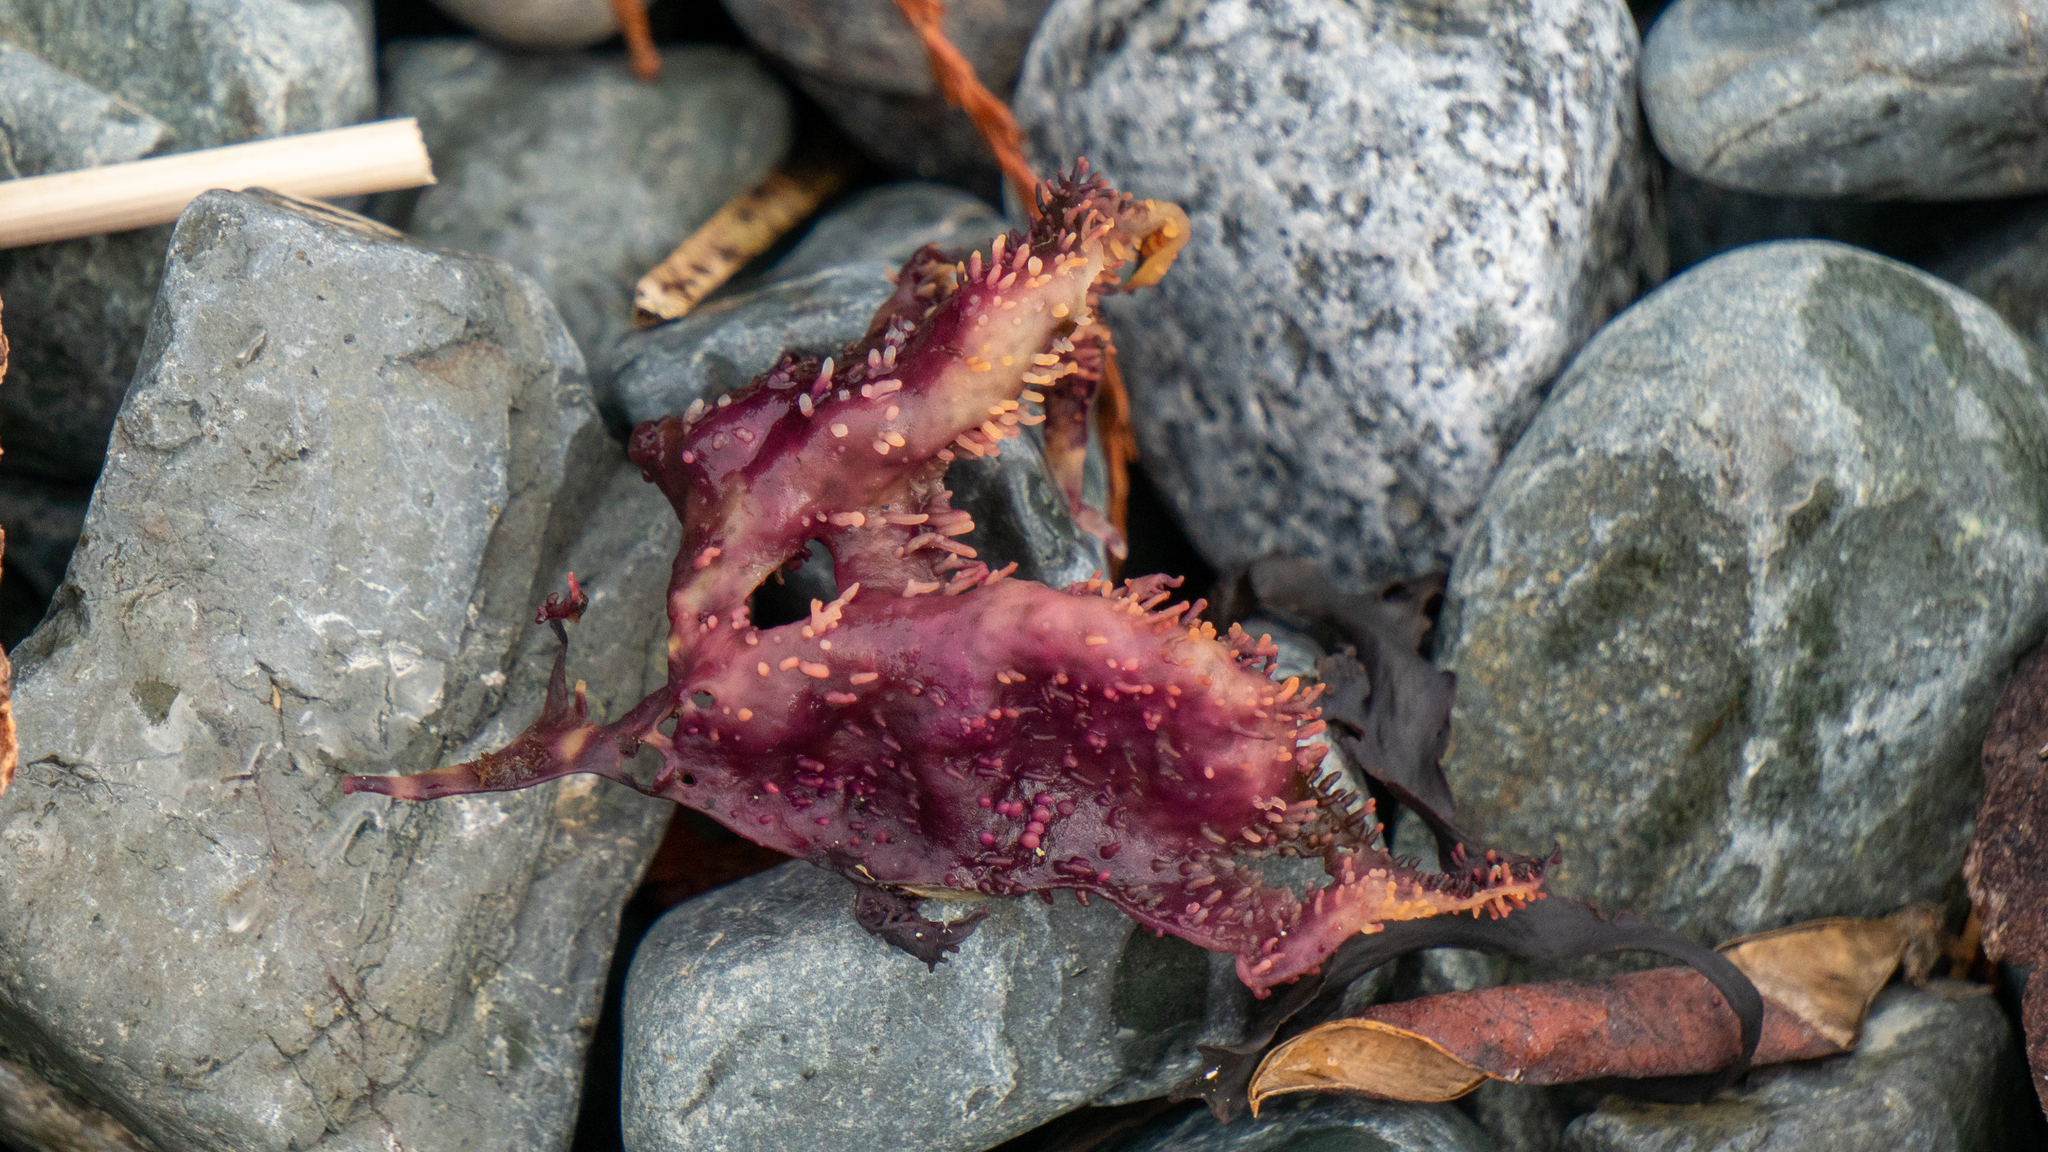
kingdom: Plantae
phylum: Rhodophyta
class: Florideophyceae
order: Gigartinales
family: Gigartinaceae
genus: Chondracanthus
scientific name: Chondracanthus exasperatus
